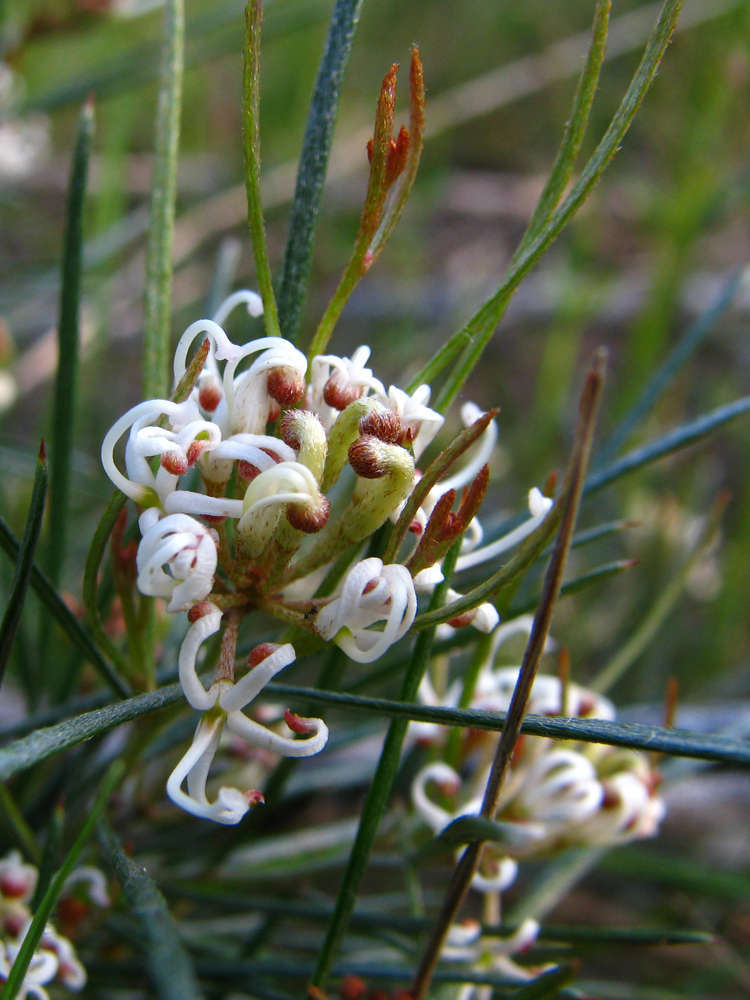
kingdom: Plantae
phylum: Tracheophyta
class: Magnoliopsida
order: Proteales
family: Proteaceae
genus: Grevillea
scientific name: Grevillea micrantha
